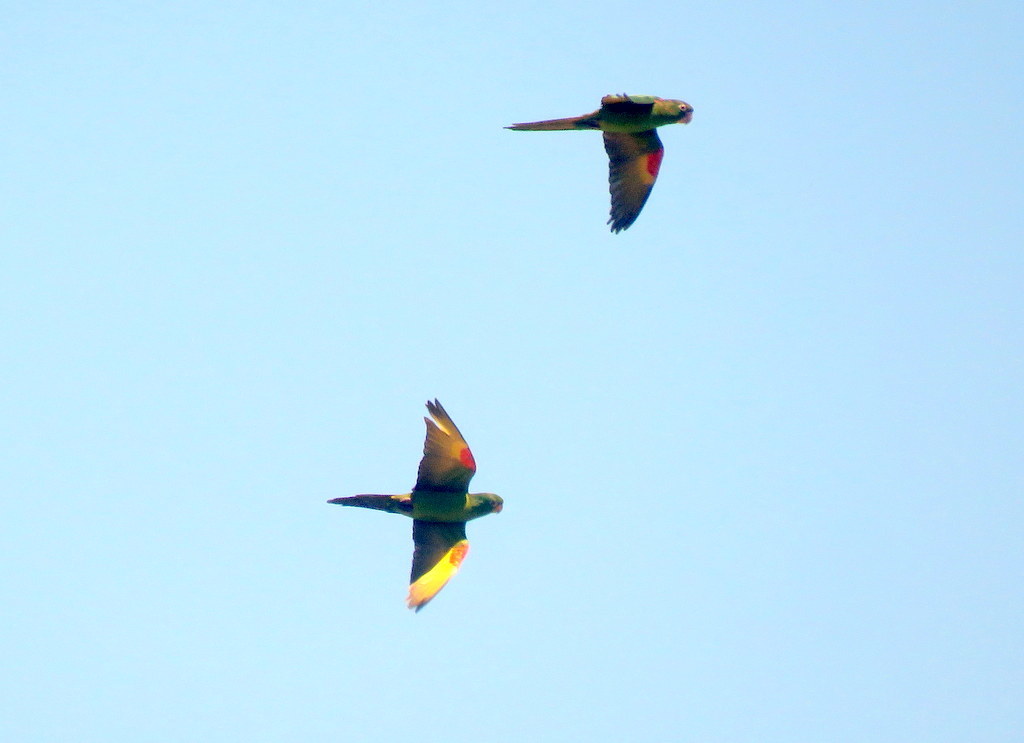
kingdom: Animalia
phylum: Chordata
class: Aves
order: Psittaciformes
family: Psittacidae
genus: Aratinga
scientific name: Aratinga leucophthalma
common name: White-eyed parakeet
